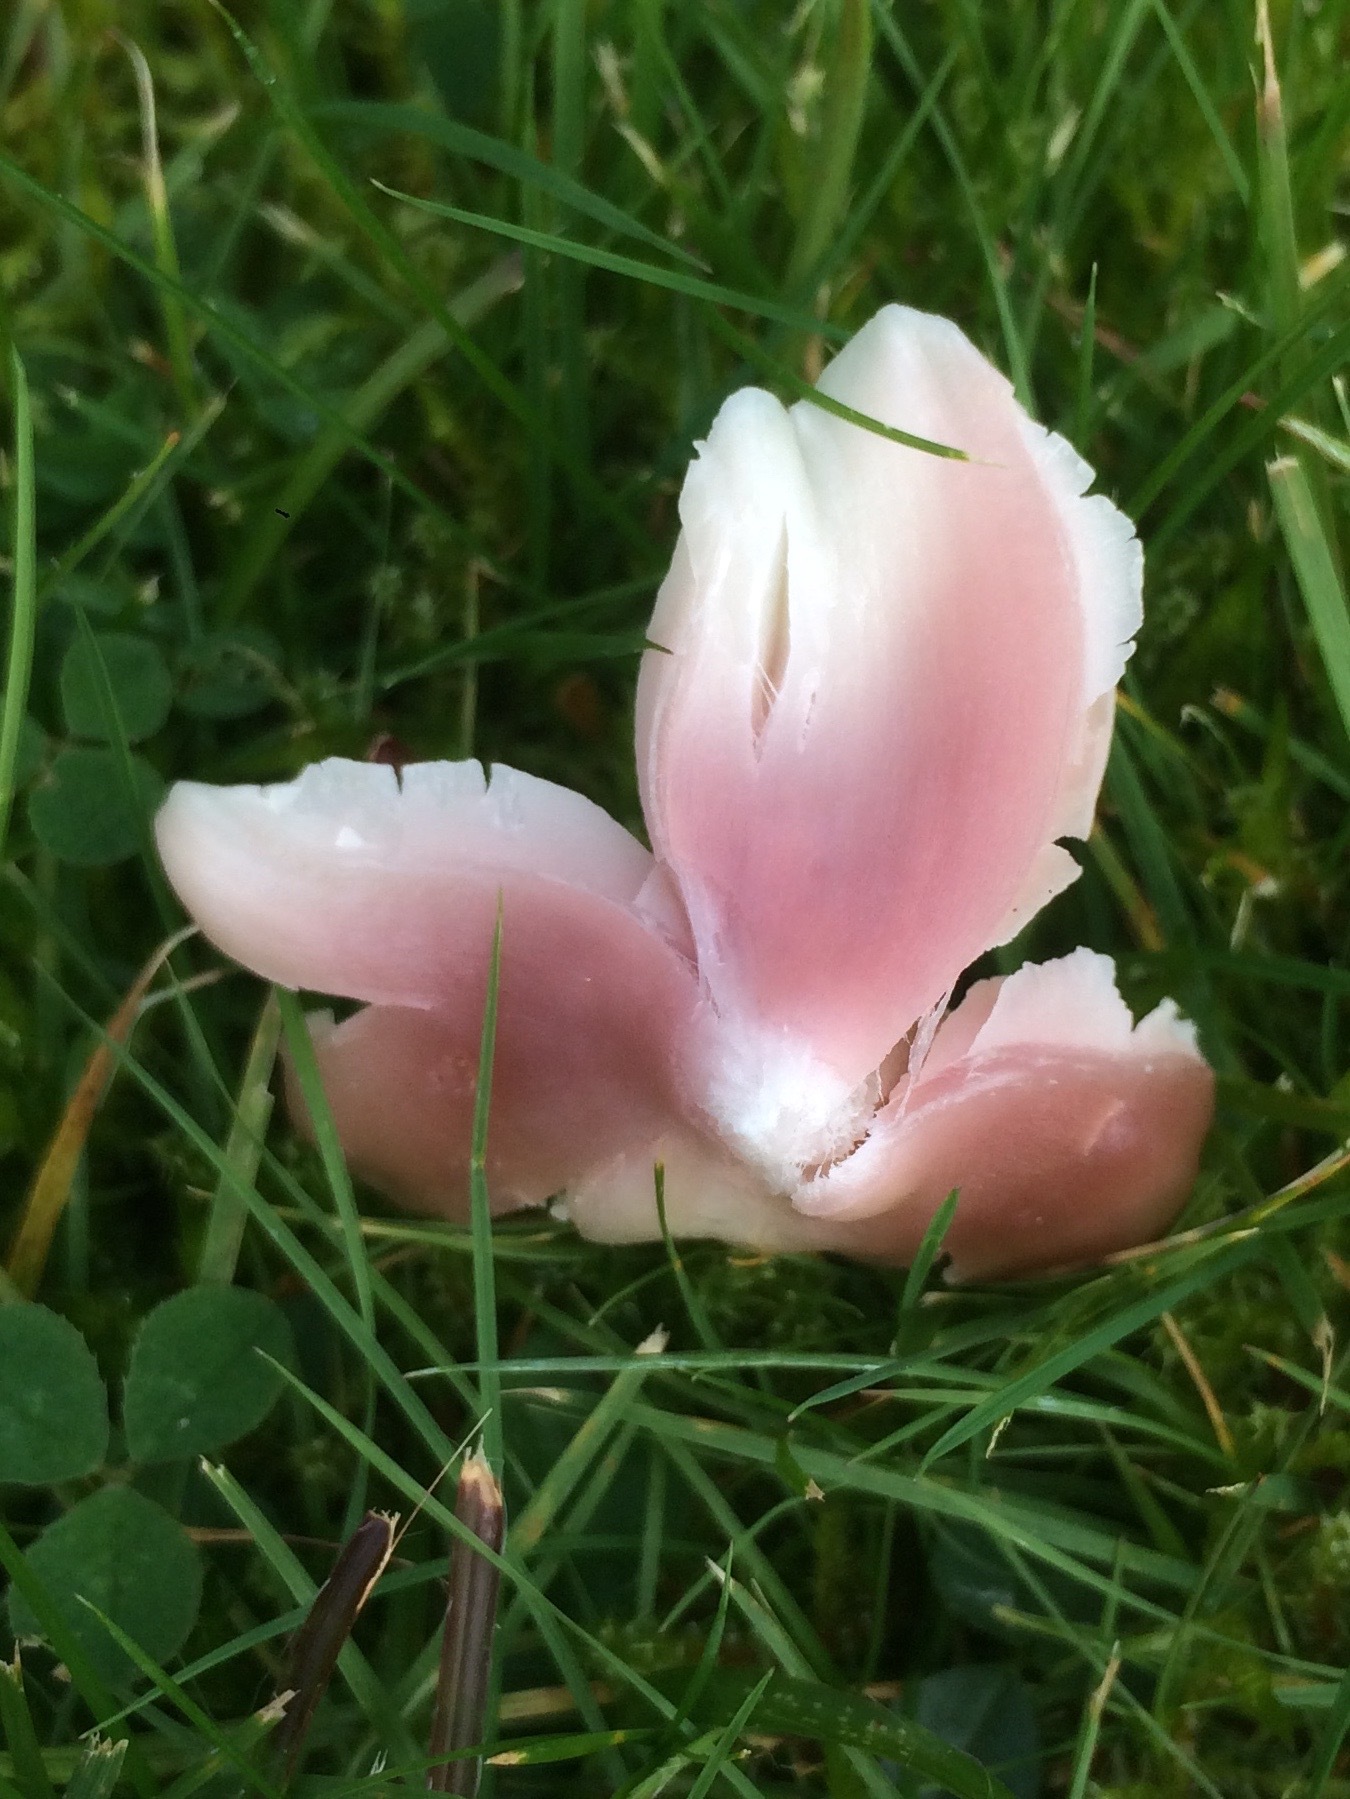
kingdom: Fungi
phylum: Basidiomycota
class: Agaricomycetes
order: Agaricales
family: Hygrophoraceae
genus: Porpolomopsis
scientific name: Porpolomopsis calyptriformis
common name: Pink waxcap
